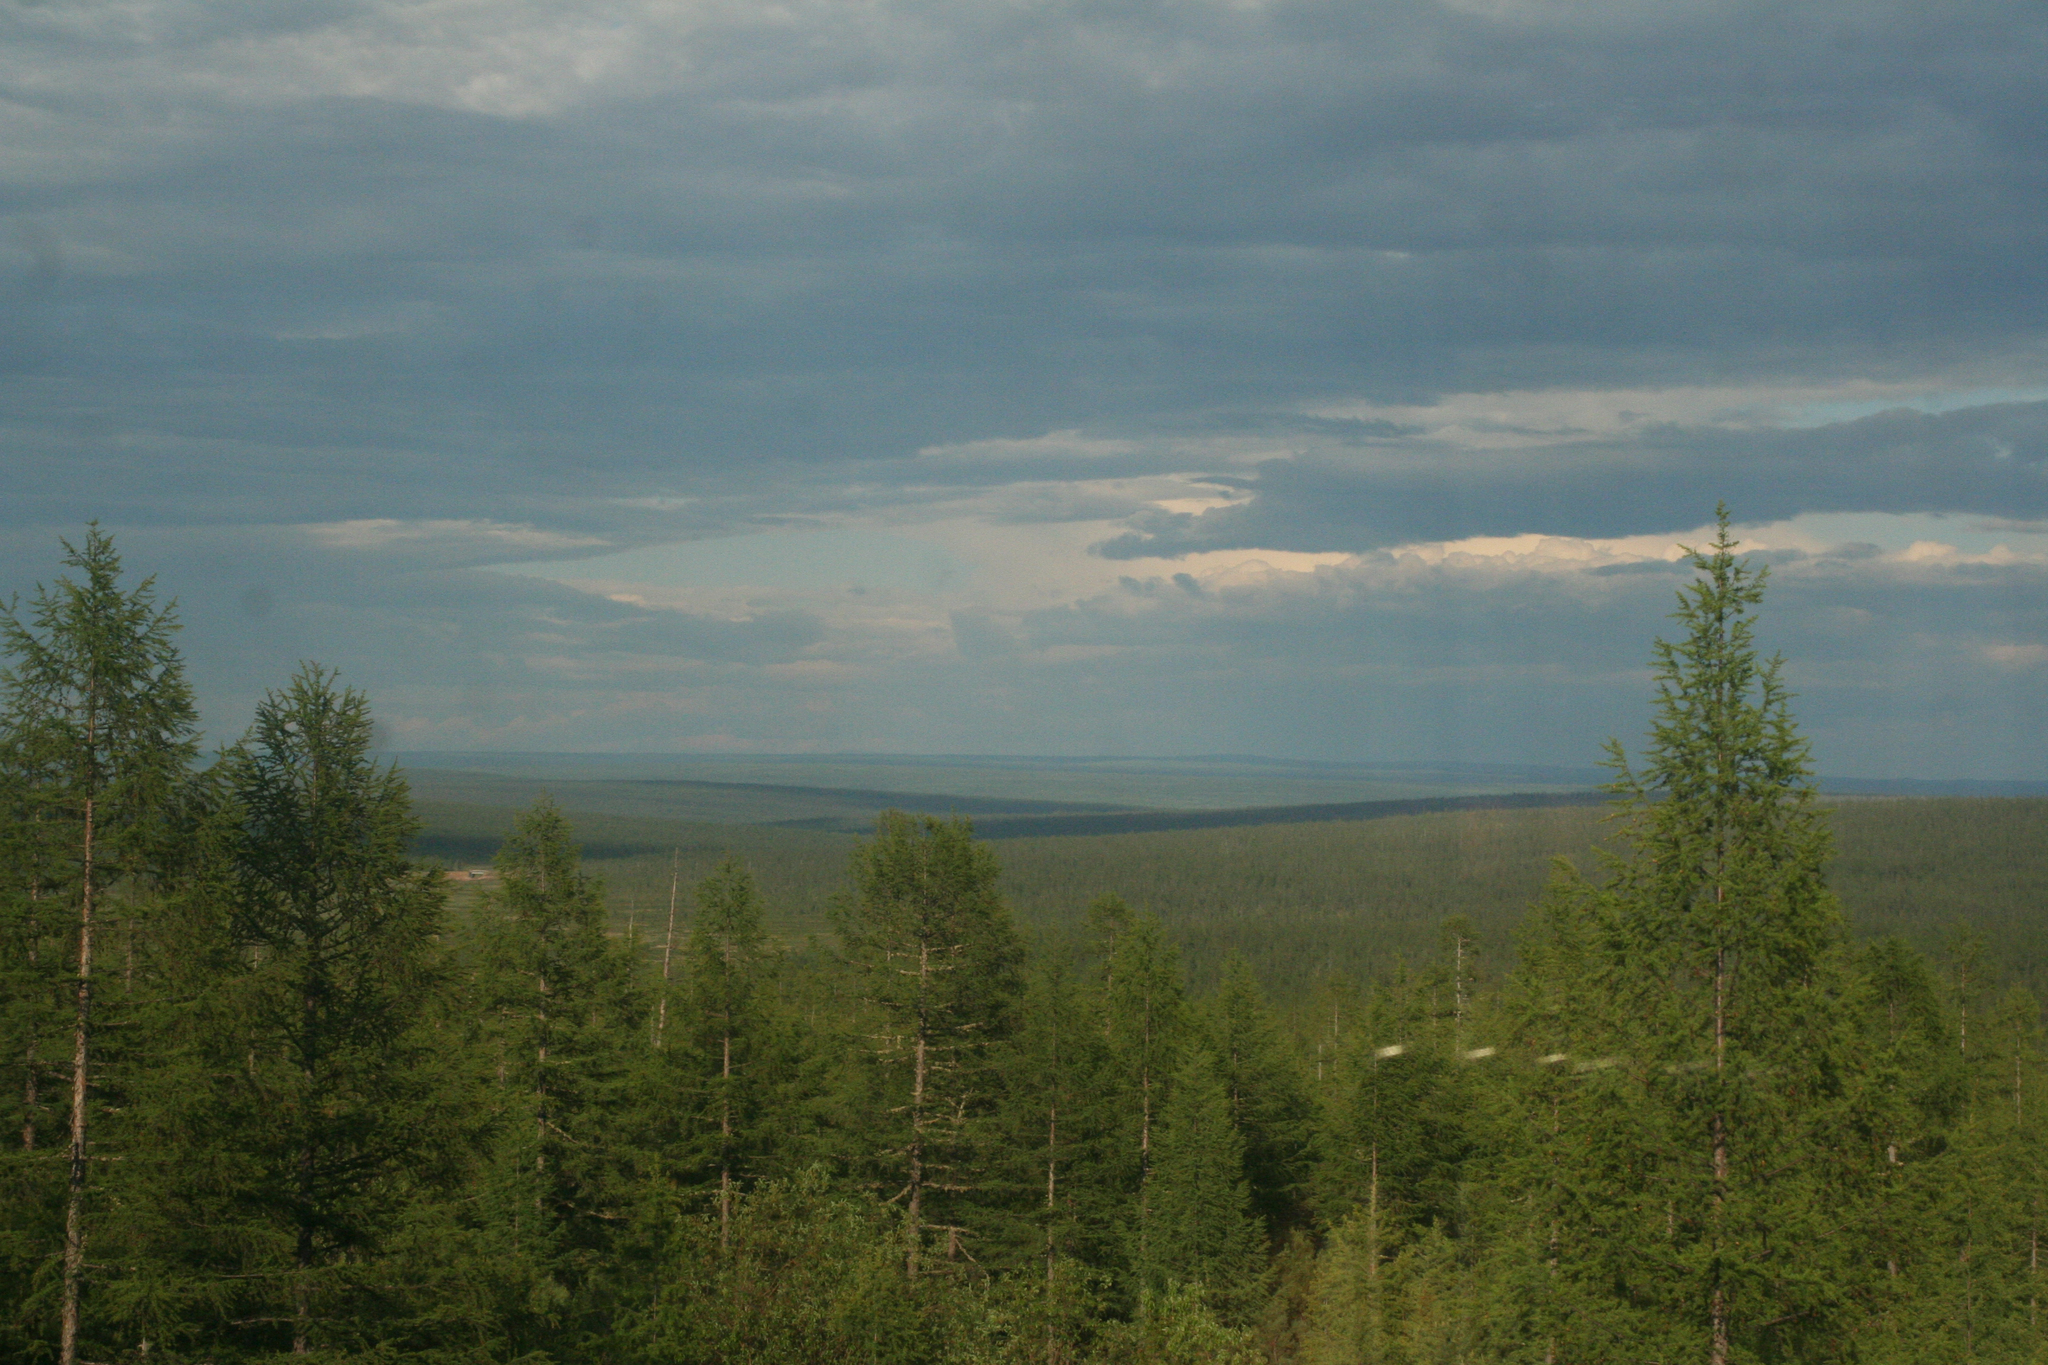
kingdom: Plantae
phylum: Tracheophyta
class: Pinopsida
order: Pinales
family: Pinaceae
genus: Larix
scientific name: Larix gmelinii
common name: Dahurian larch
